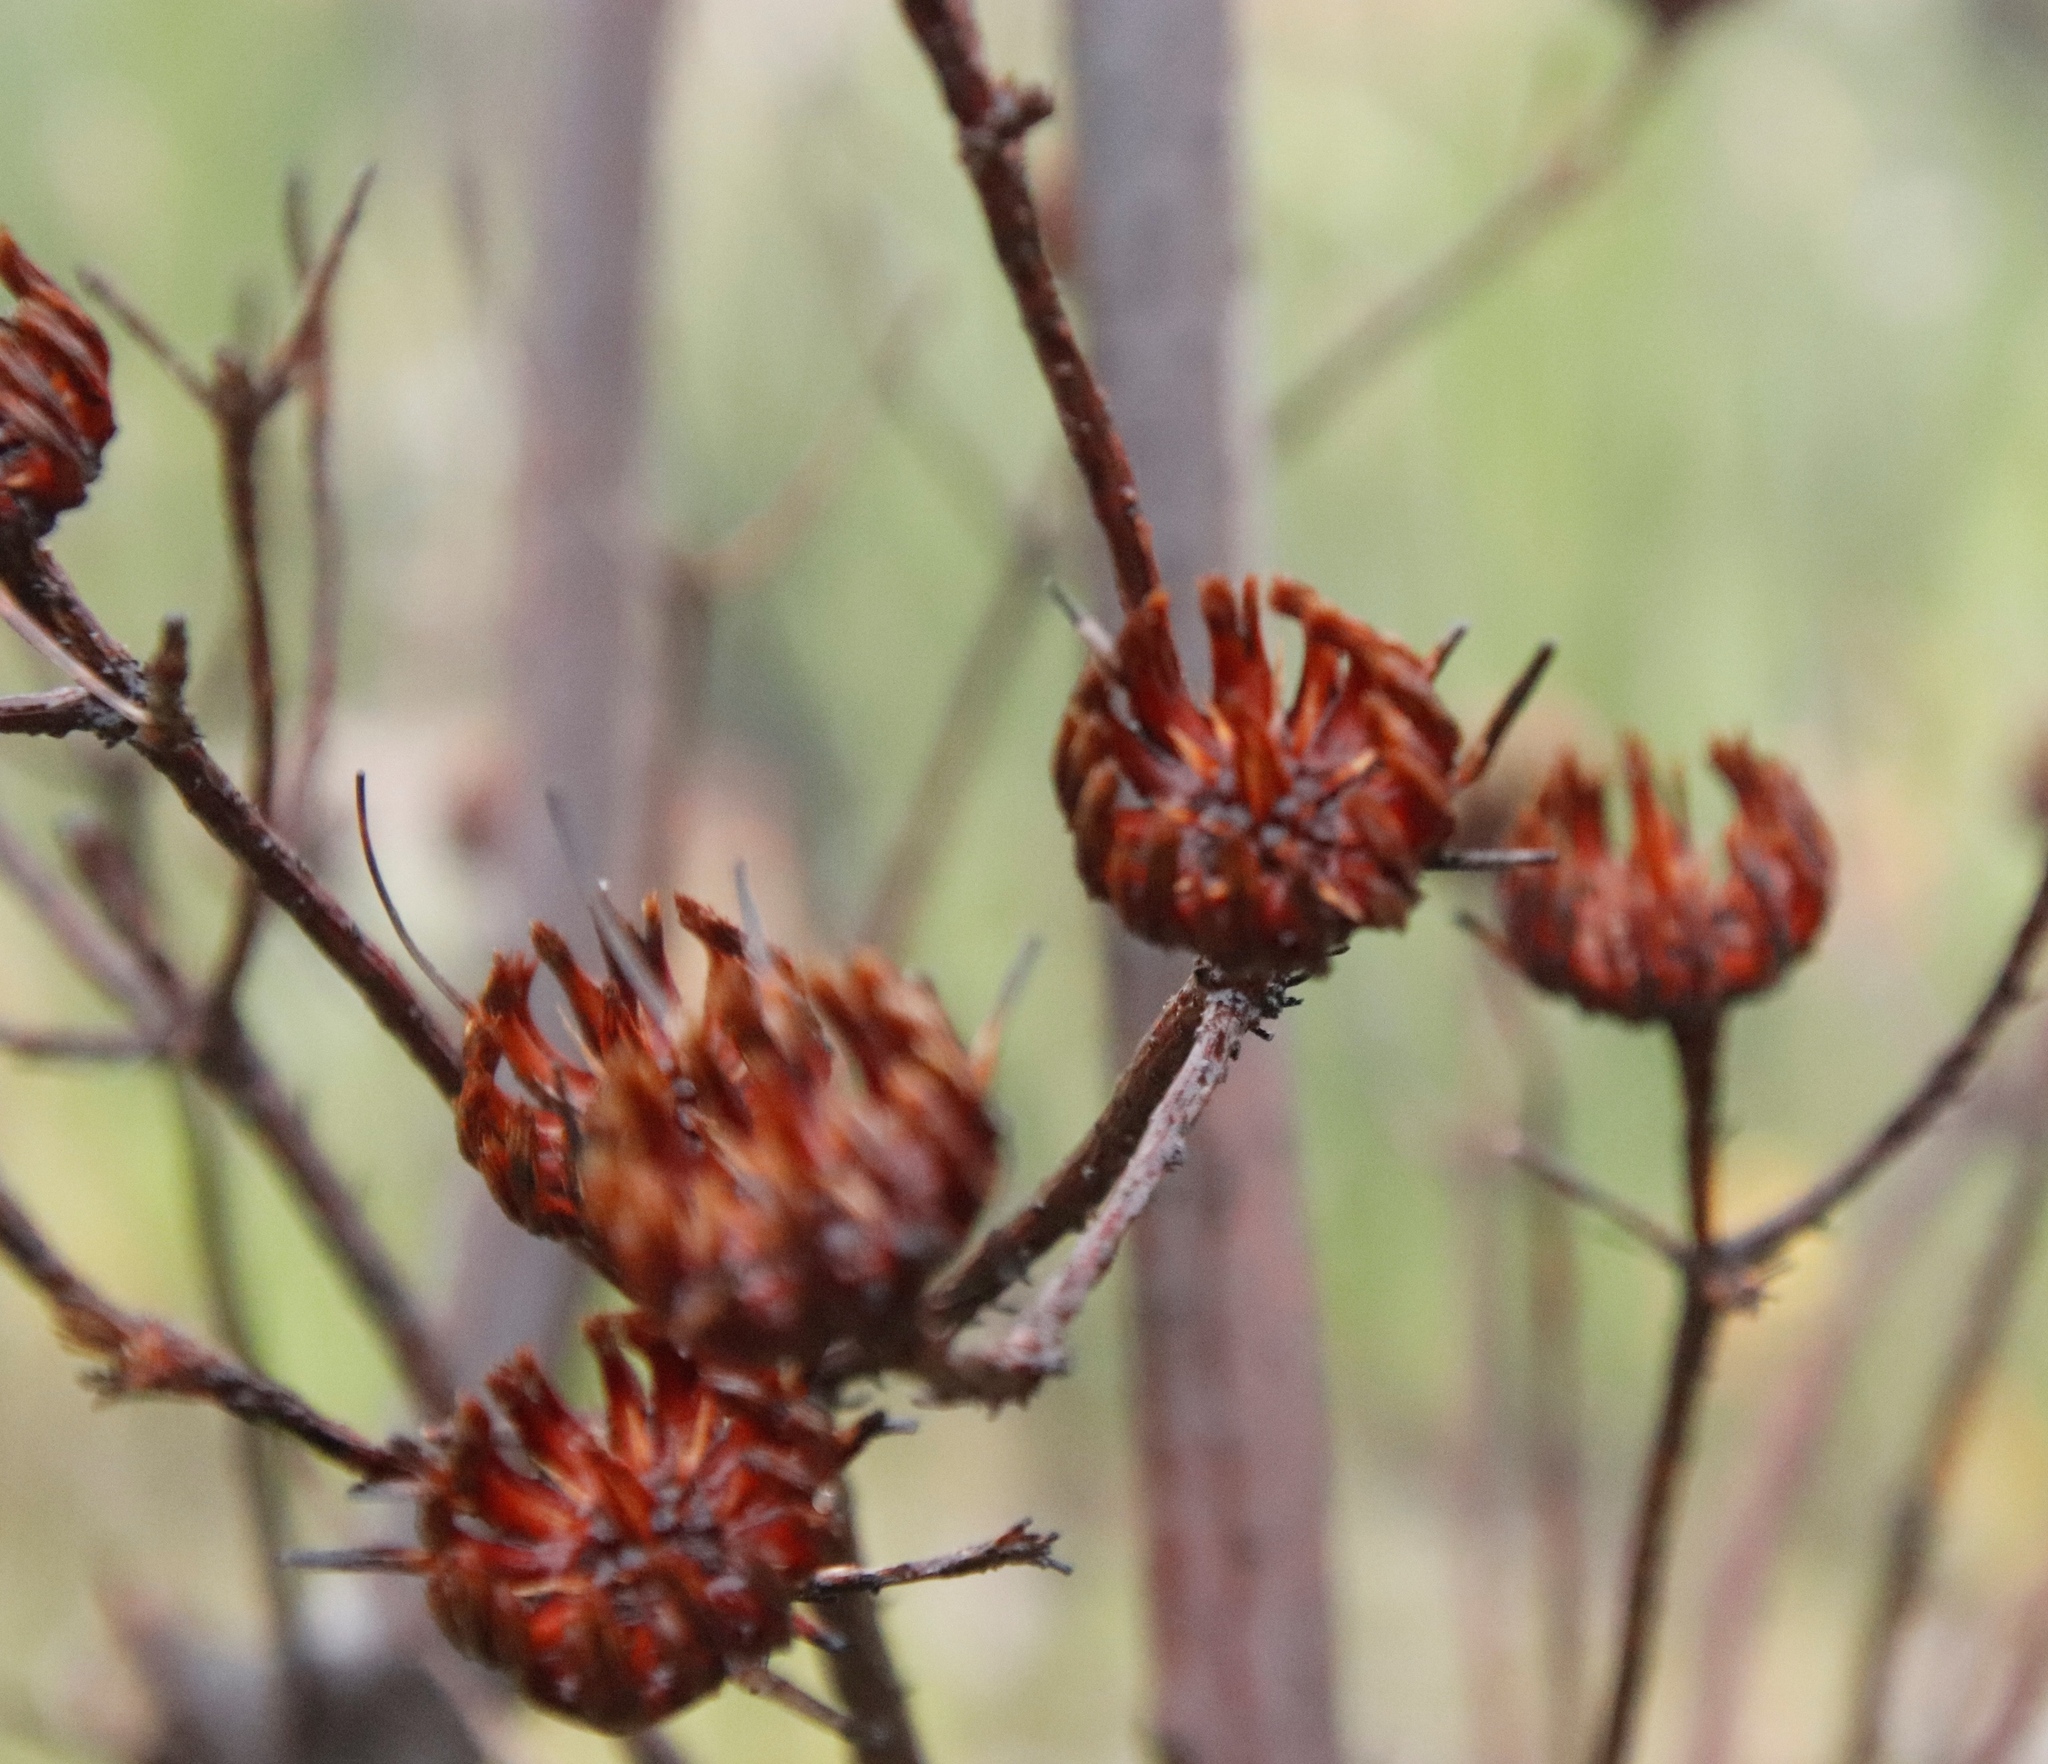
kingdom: Plantae
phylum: Tracheophyta
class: Magnoliopsida
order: Proteales
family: Proteaceae
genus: Aulax
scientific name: Aulax cancellata
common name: Channel-leaf featherbush
